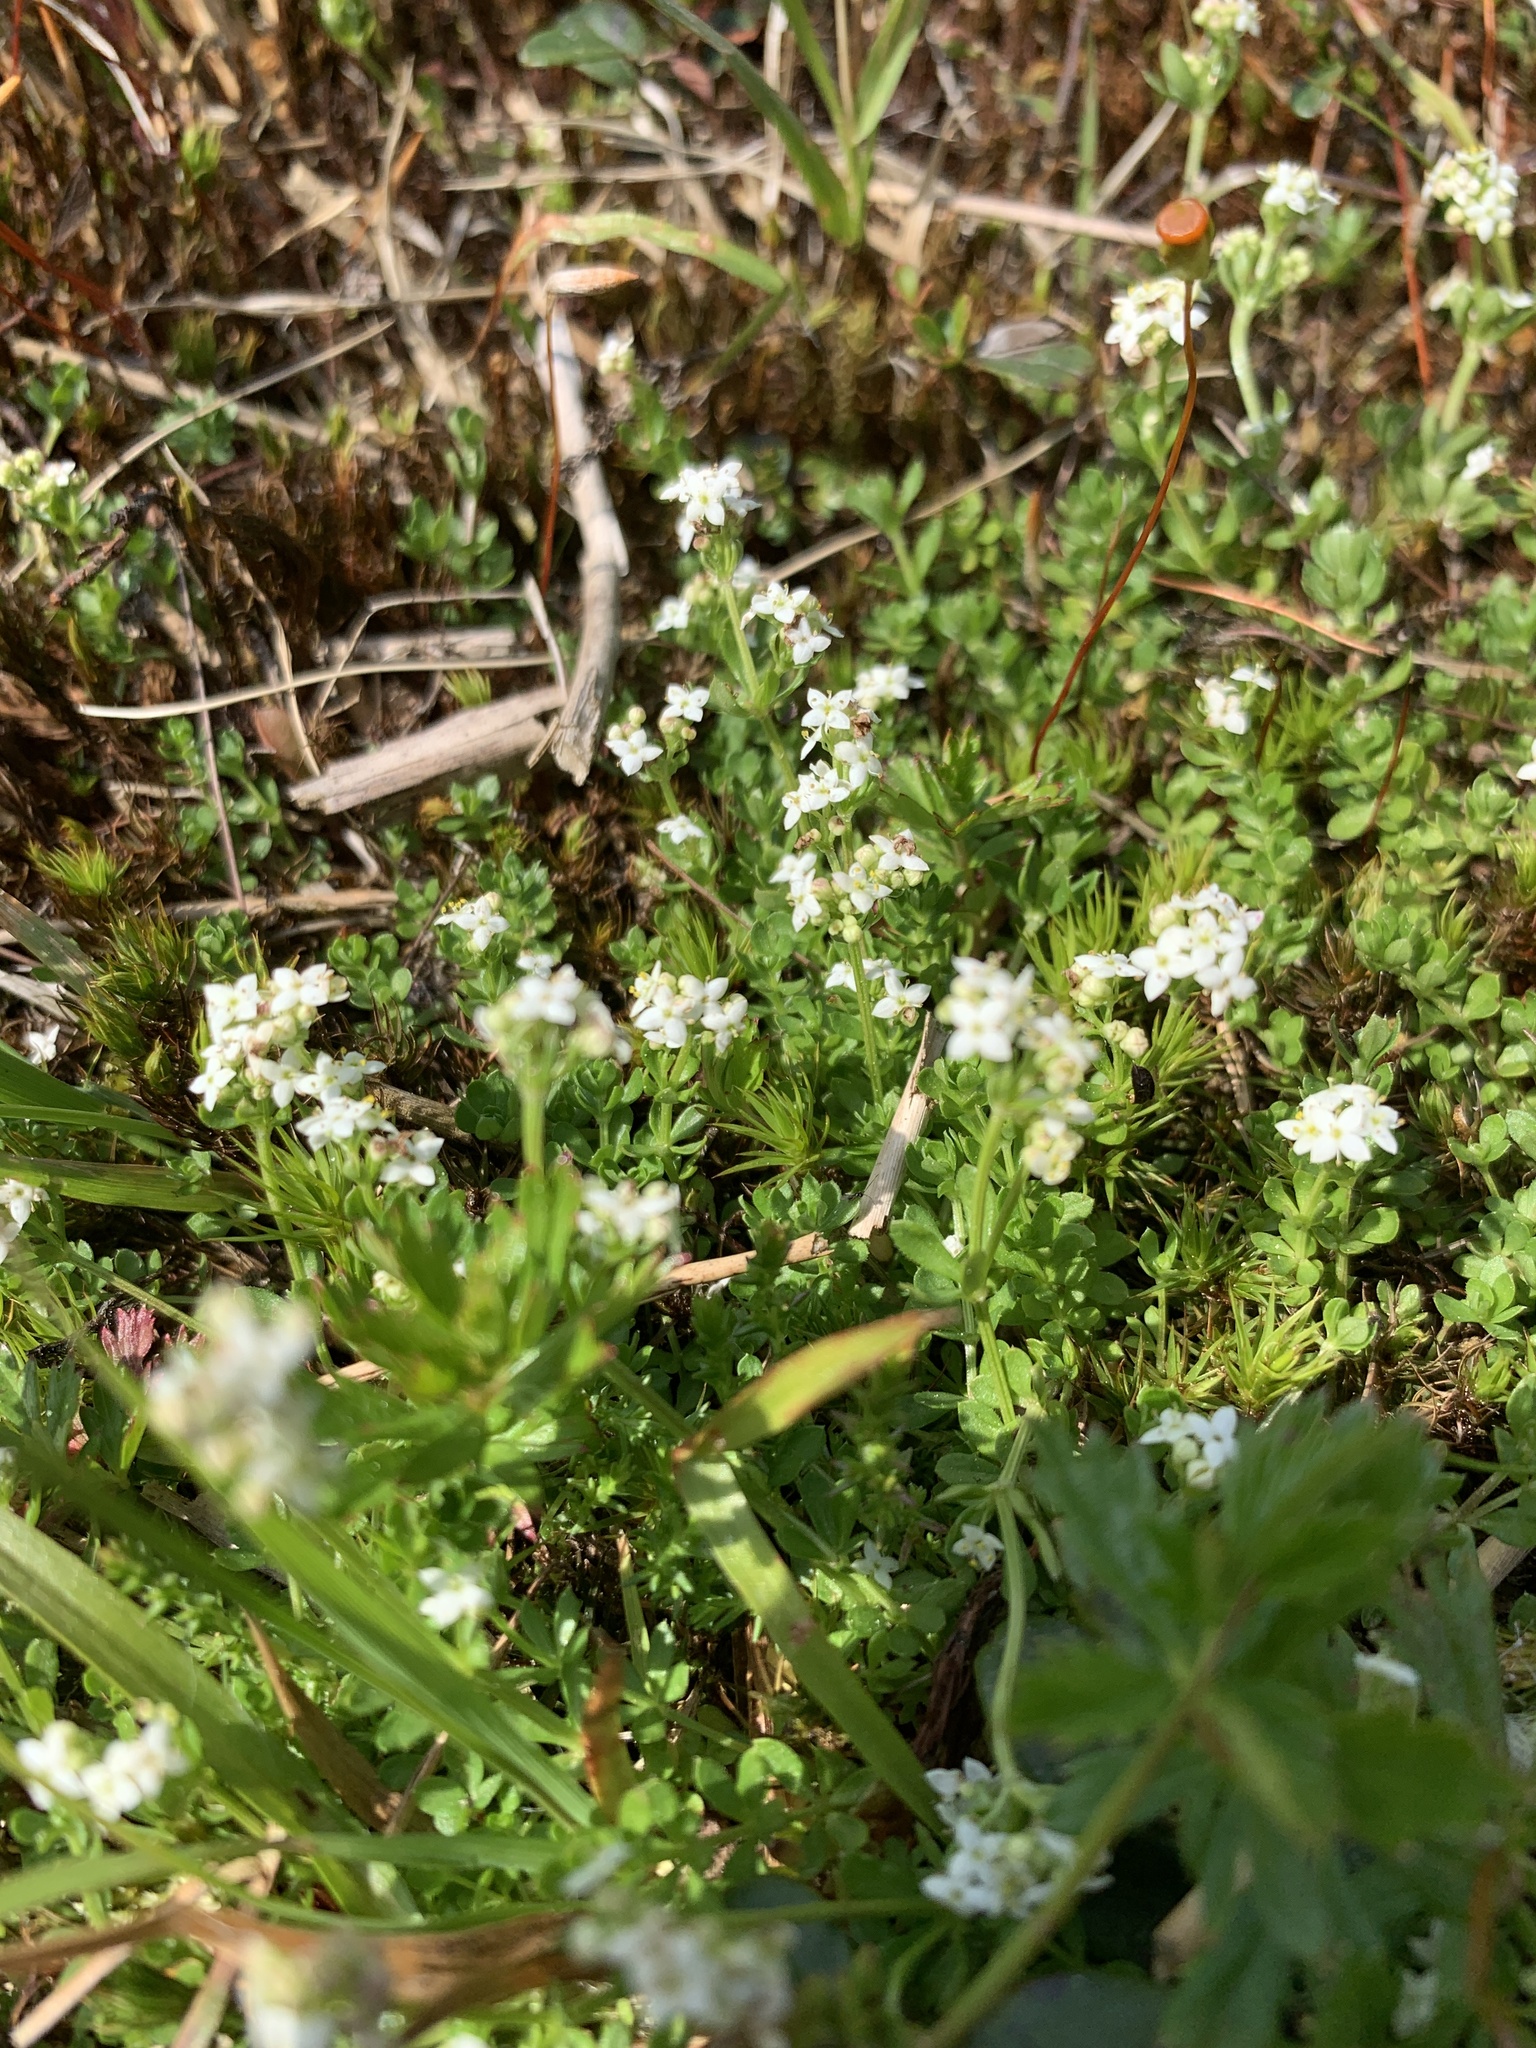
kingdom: Plantae
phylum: Tracheophyta
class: Magnoliopsida
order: Gentianales
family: Rubiaceae
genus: Galium
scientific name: Galium saxatile
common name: Heath bedstraw
